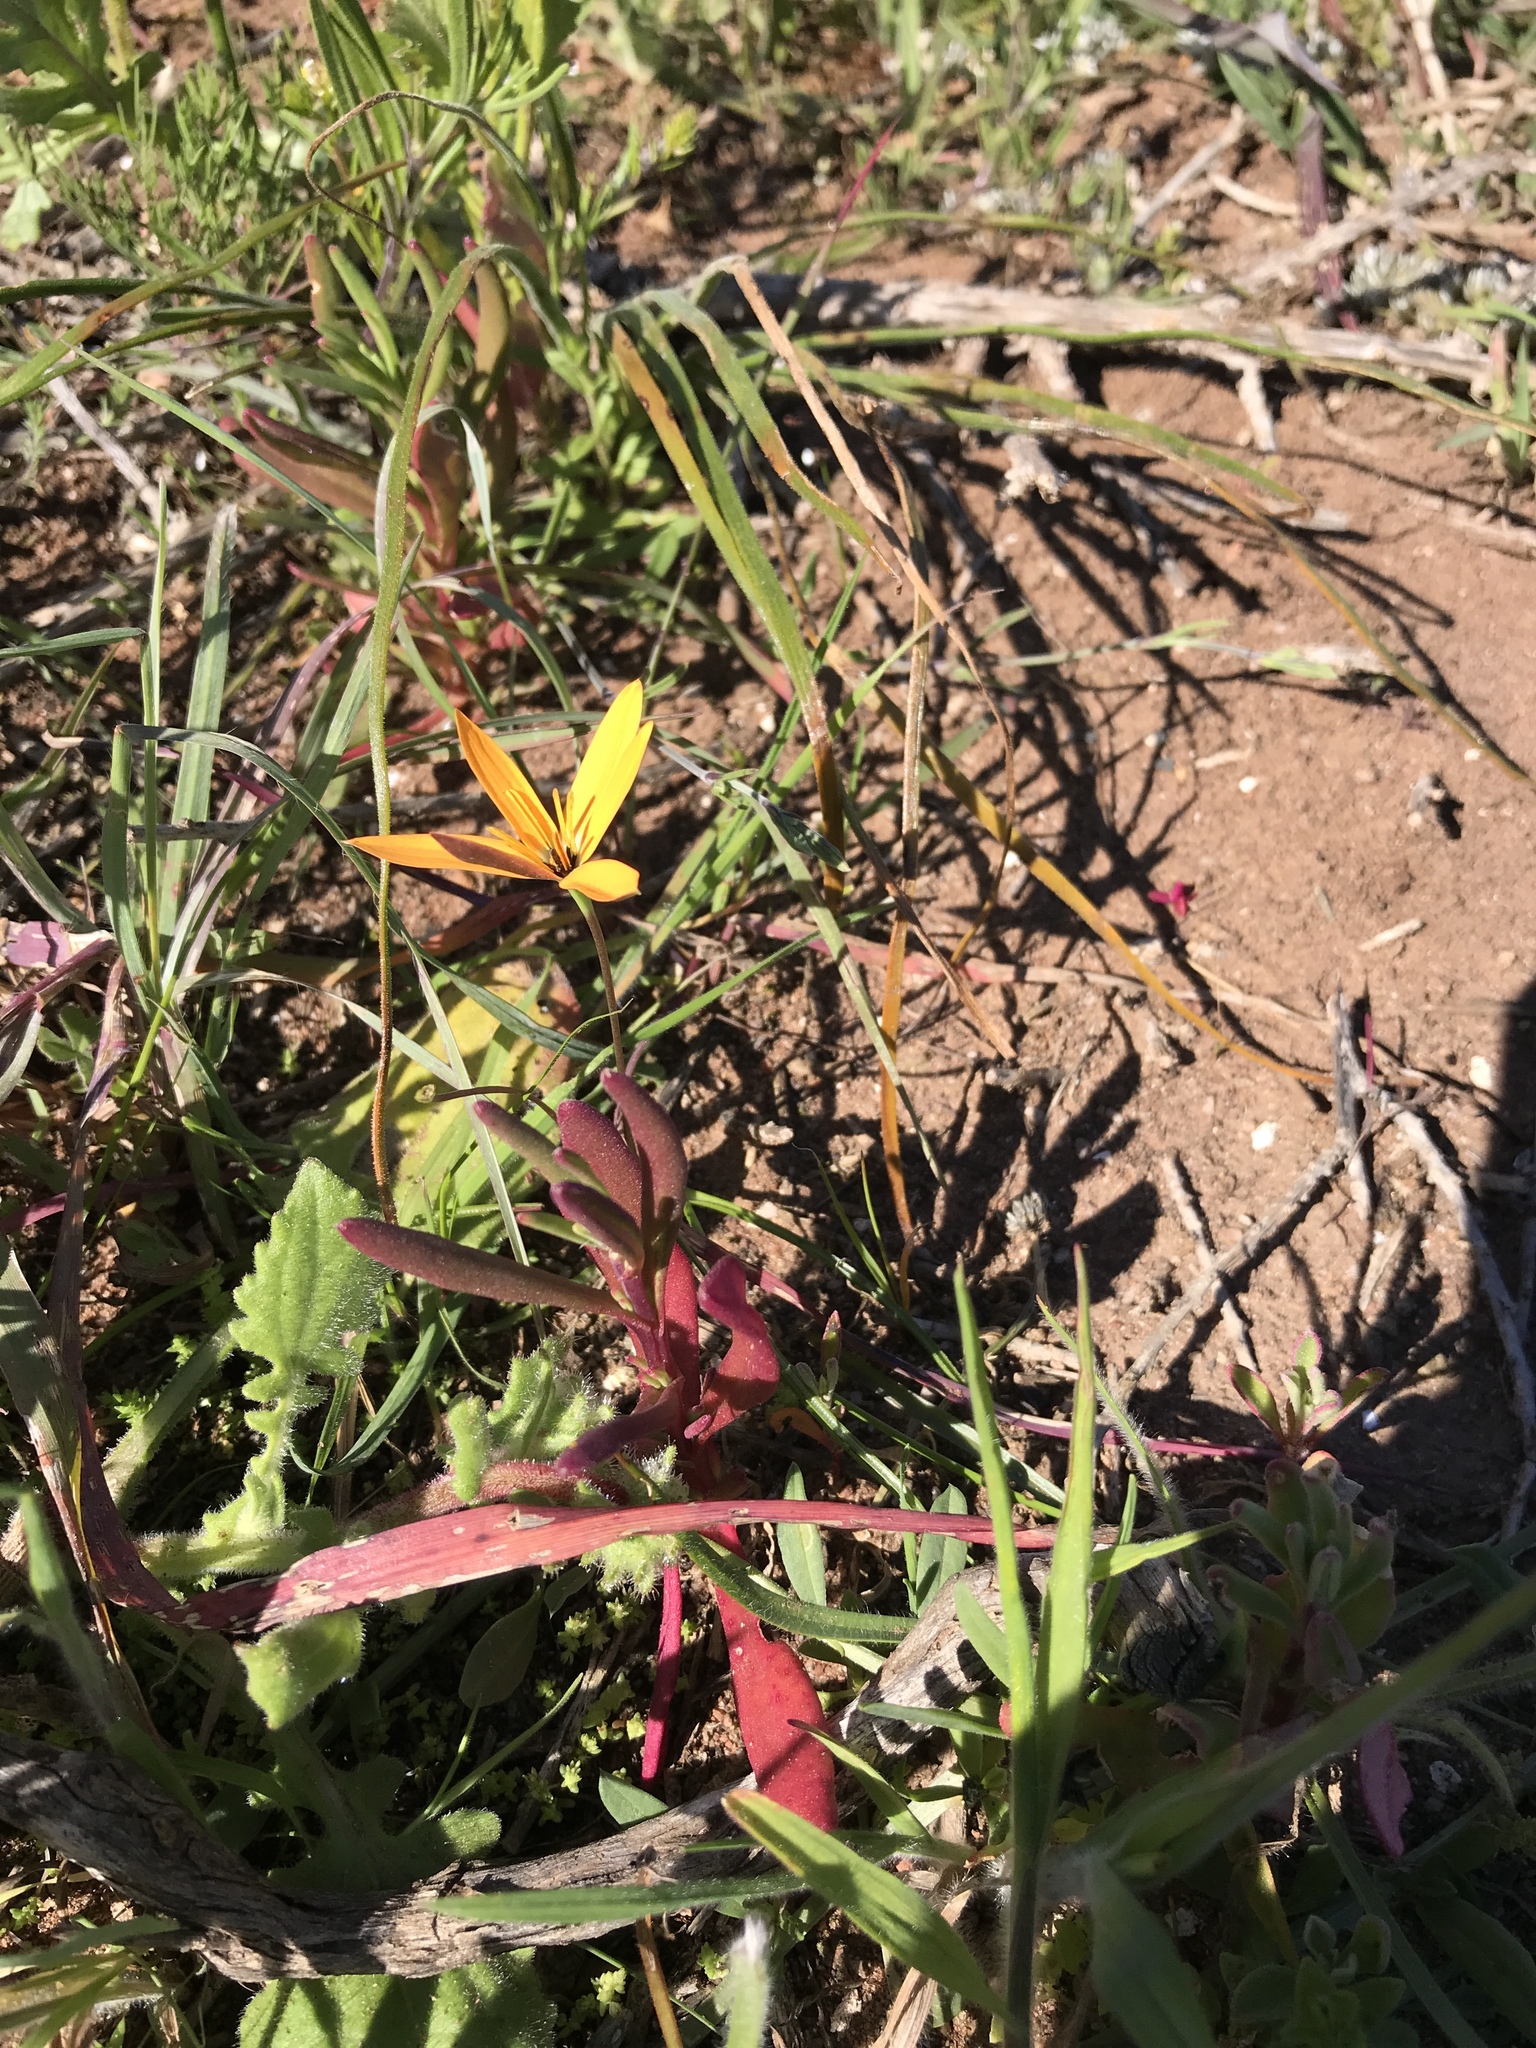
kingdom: Plantae
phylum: Tracheophyta
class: Liliopsida
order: Asparagales
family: Hypoxidaceae
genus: Pauridia
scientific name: Pauridia linearis
